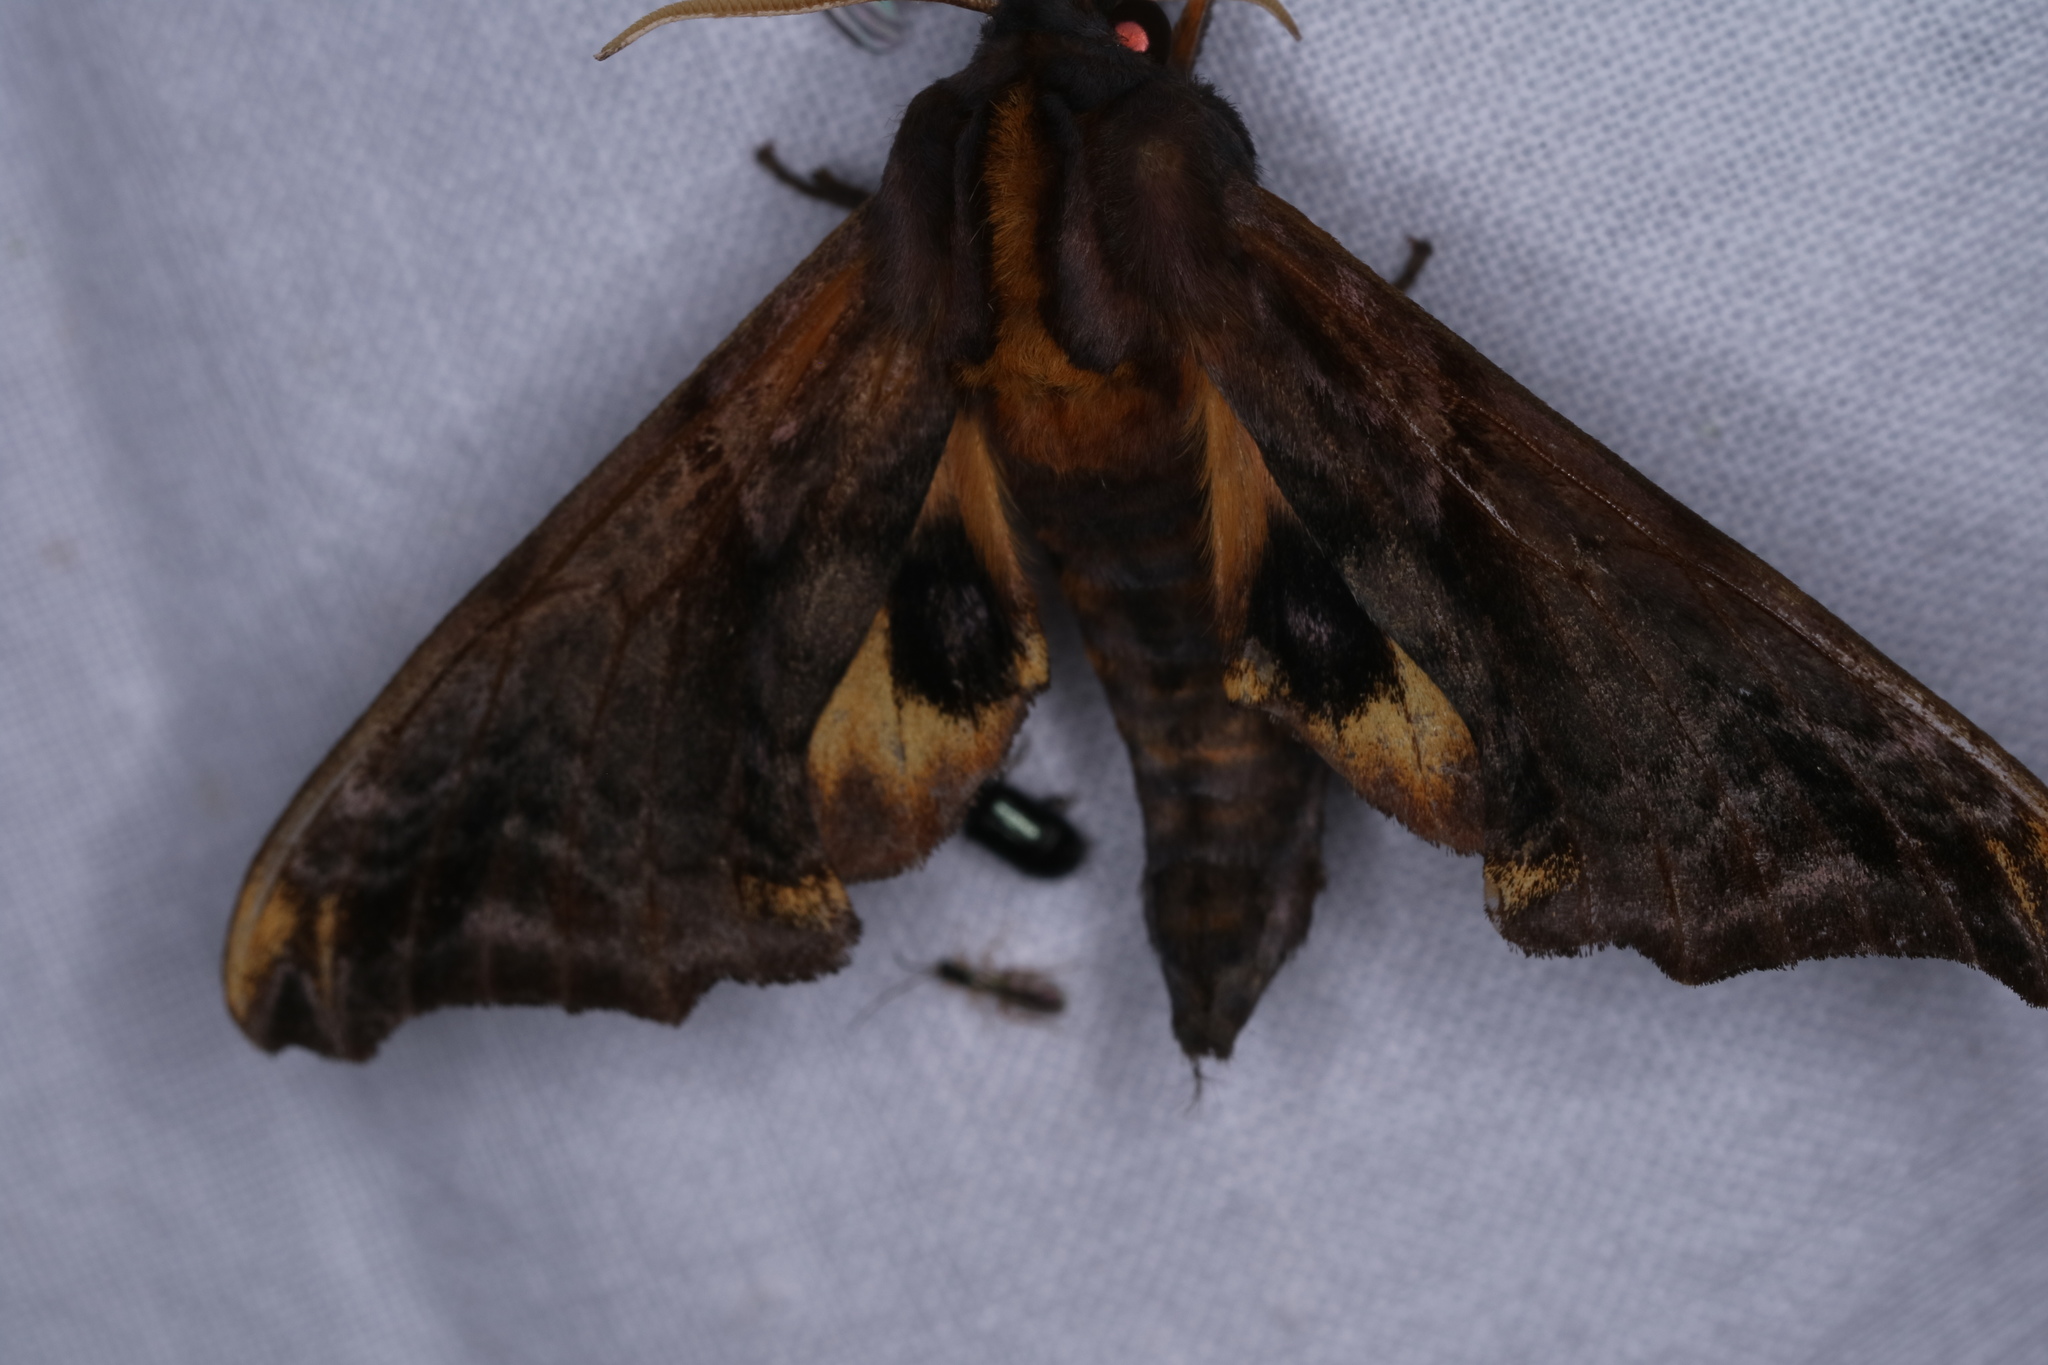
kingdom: Animalia
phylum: Arthropoda
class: Insecta
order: Lepidoptera
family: Sphingidae
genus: Paonias
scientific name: Paonias myops
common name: Small-eyed sphinx
